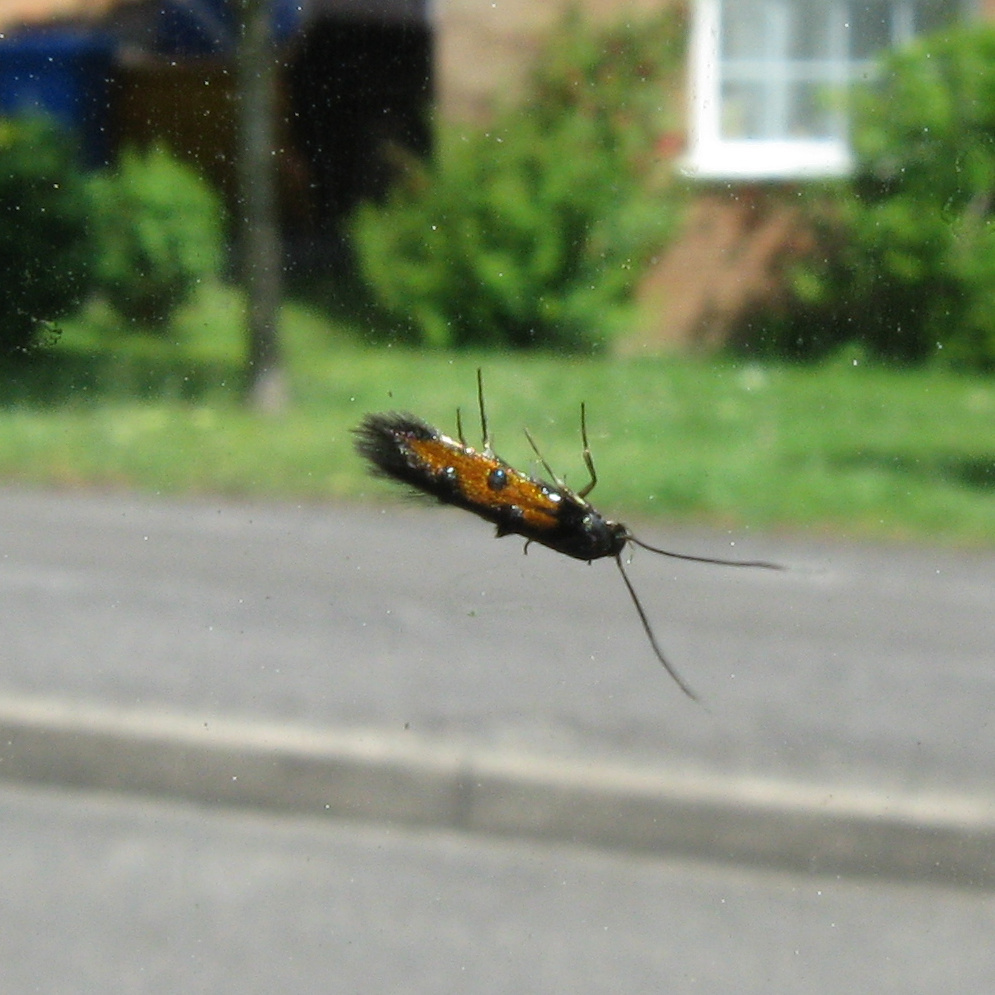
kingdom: Animalia
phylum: Arthropoda
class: Insecta
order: Lepidoptera
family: Elachistidae
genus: Chrysoclista
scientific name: Chrysoclista linneela
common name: Lime cosmet
